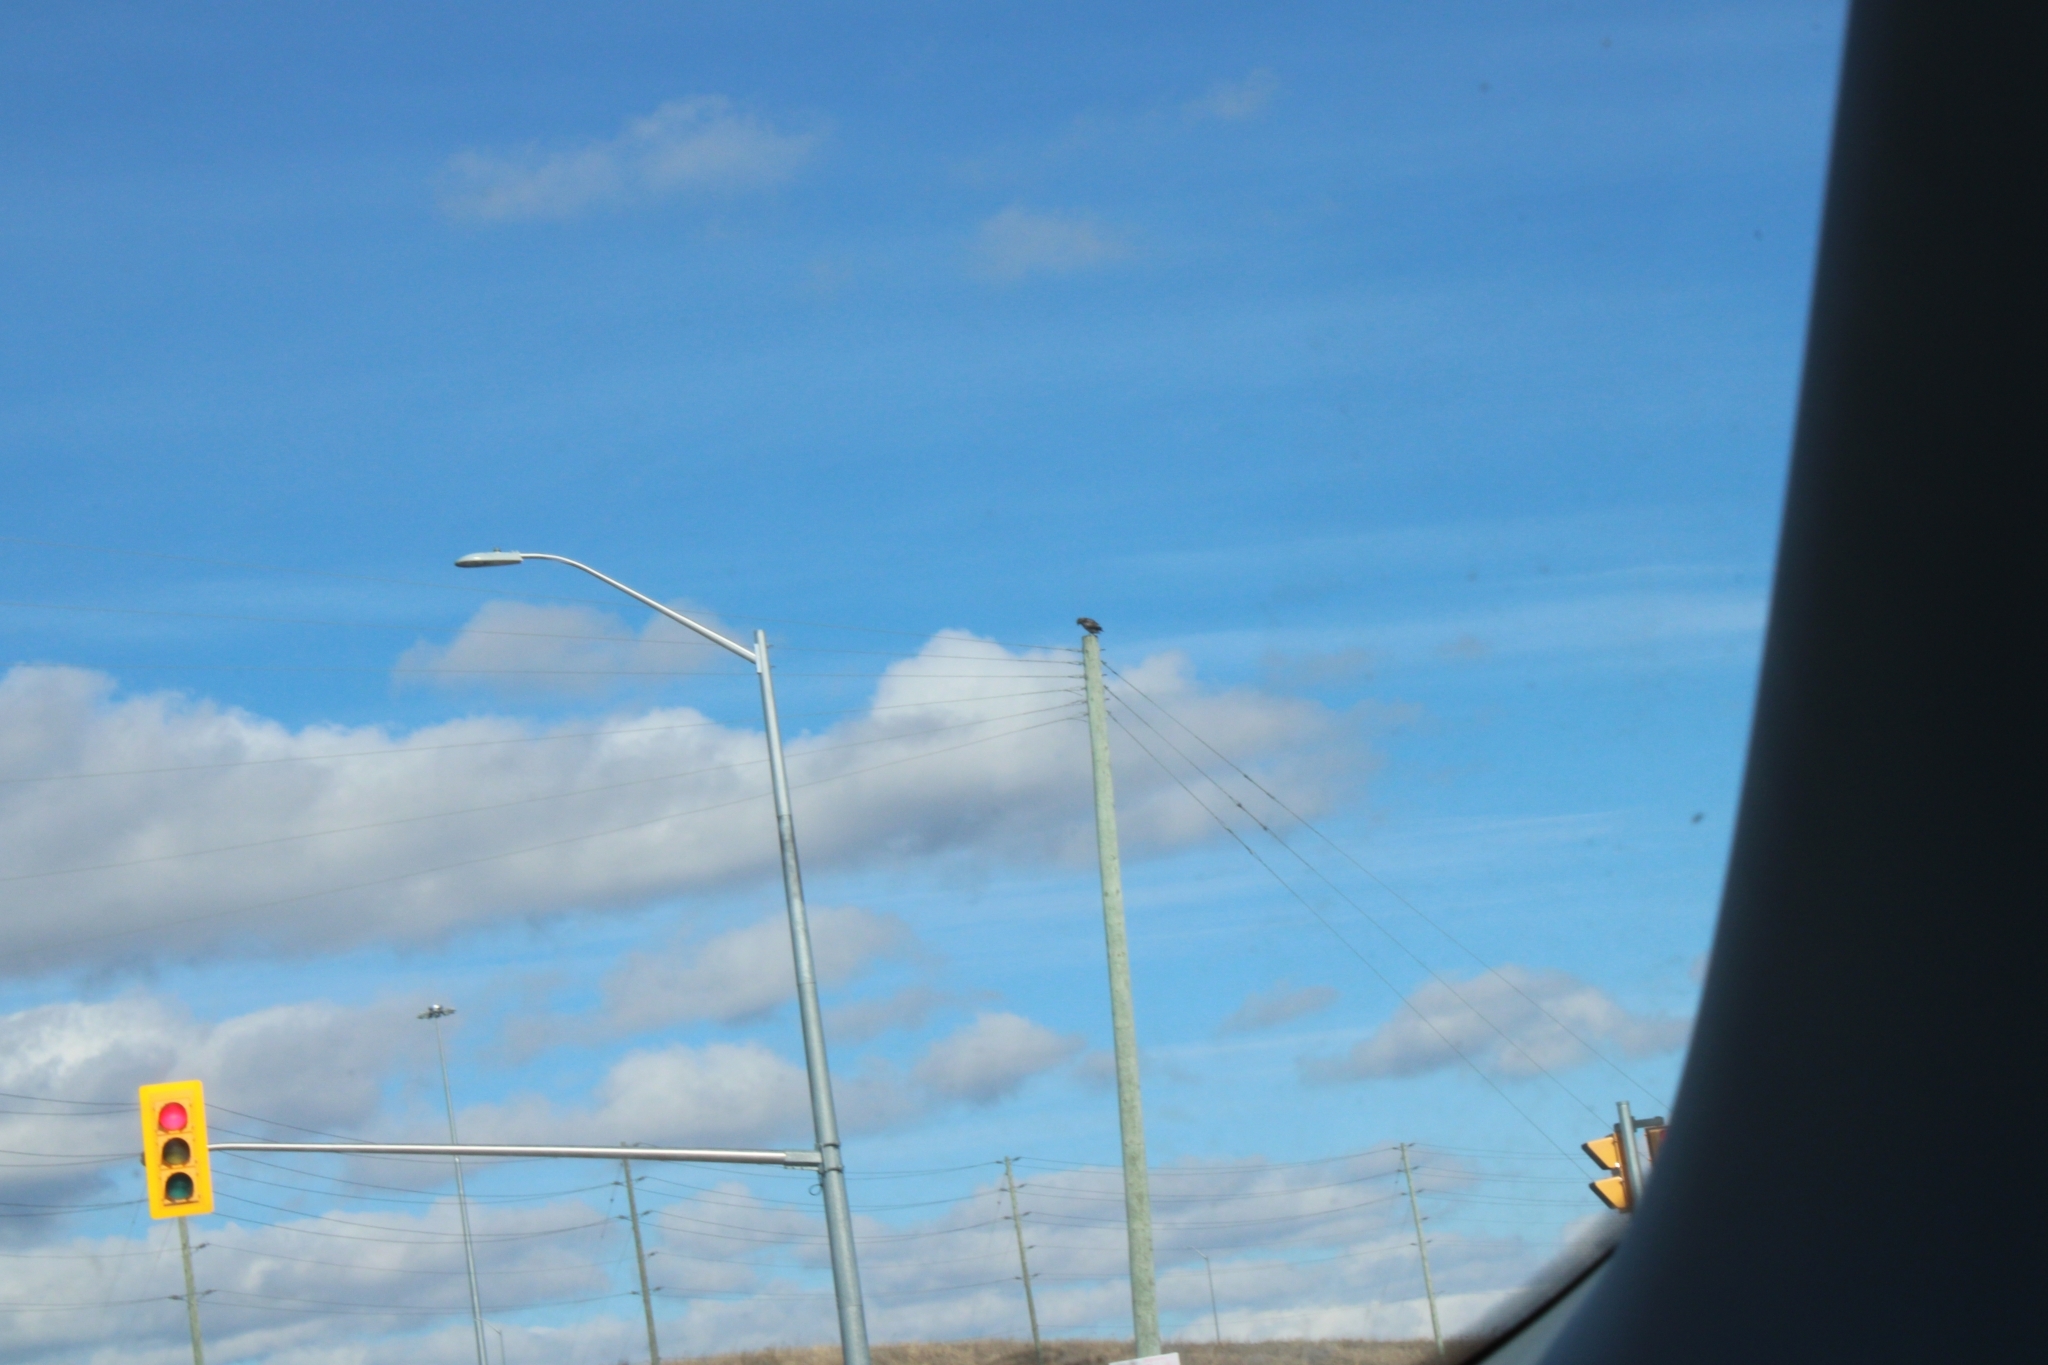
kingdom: Animalia
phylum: Chordata
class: Aves
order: Accipitriformes
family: Accipitridae
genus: Buteo
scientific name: Buteo jamaicensis
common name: Red-tailed hawk
